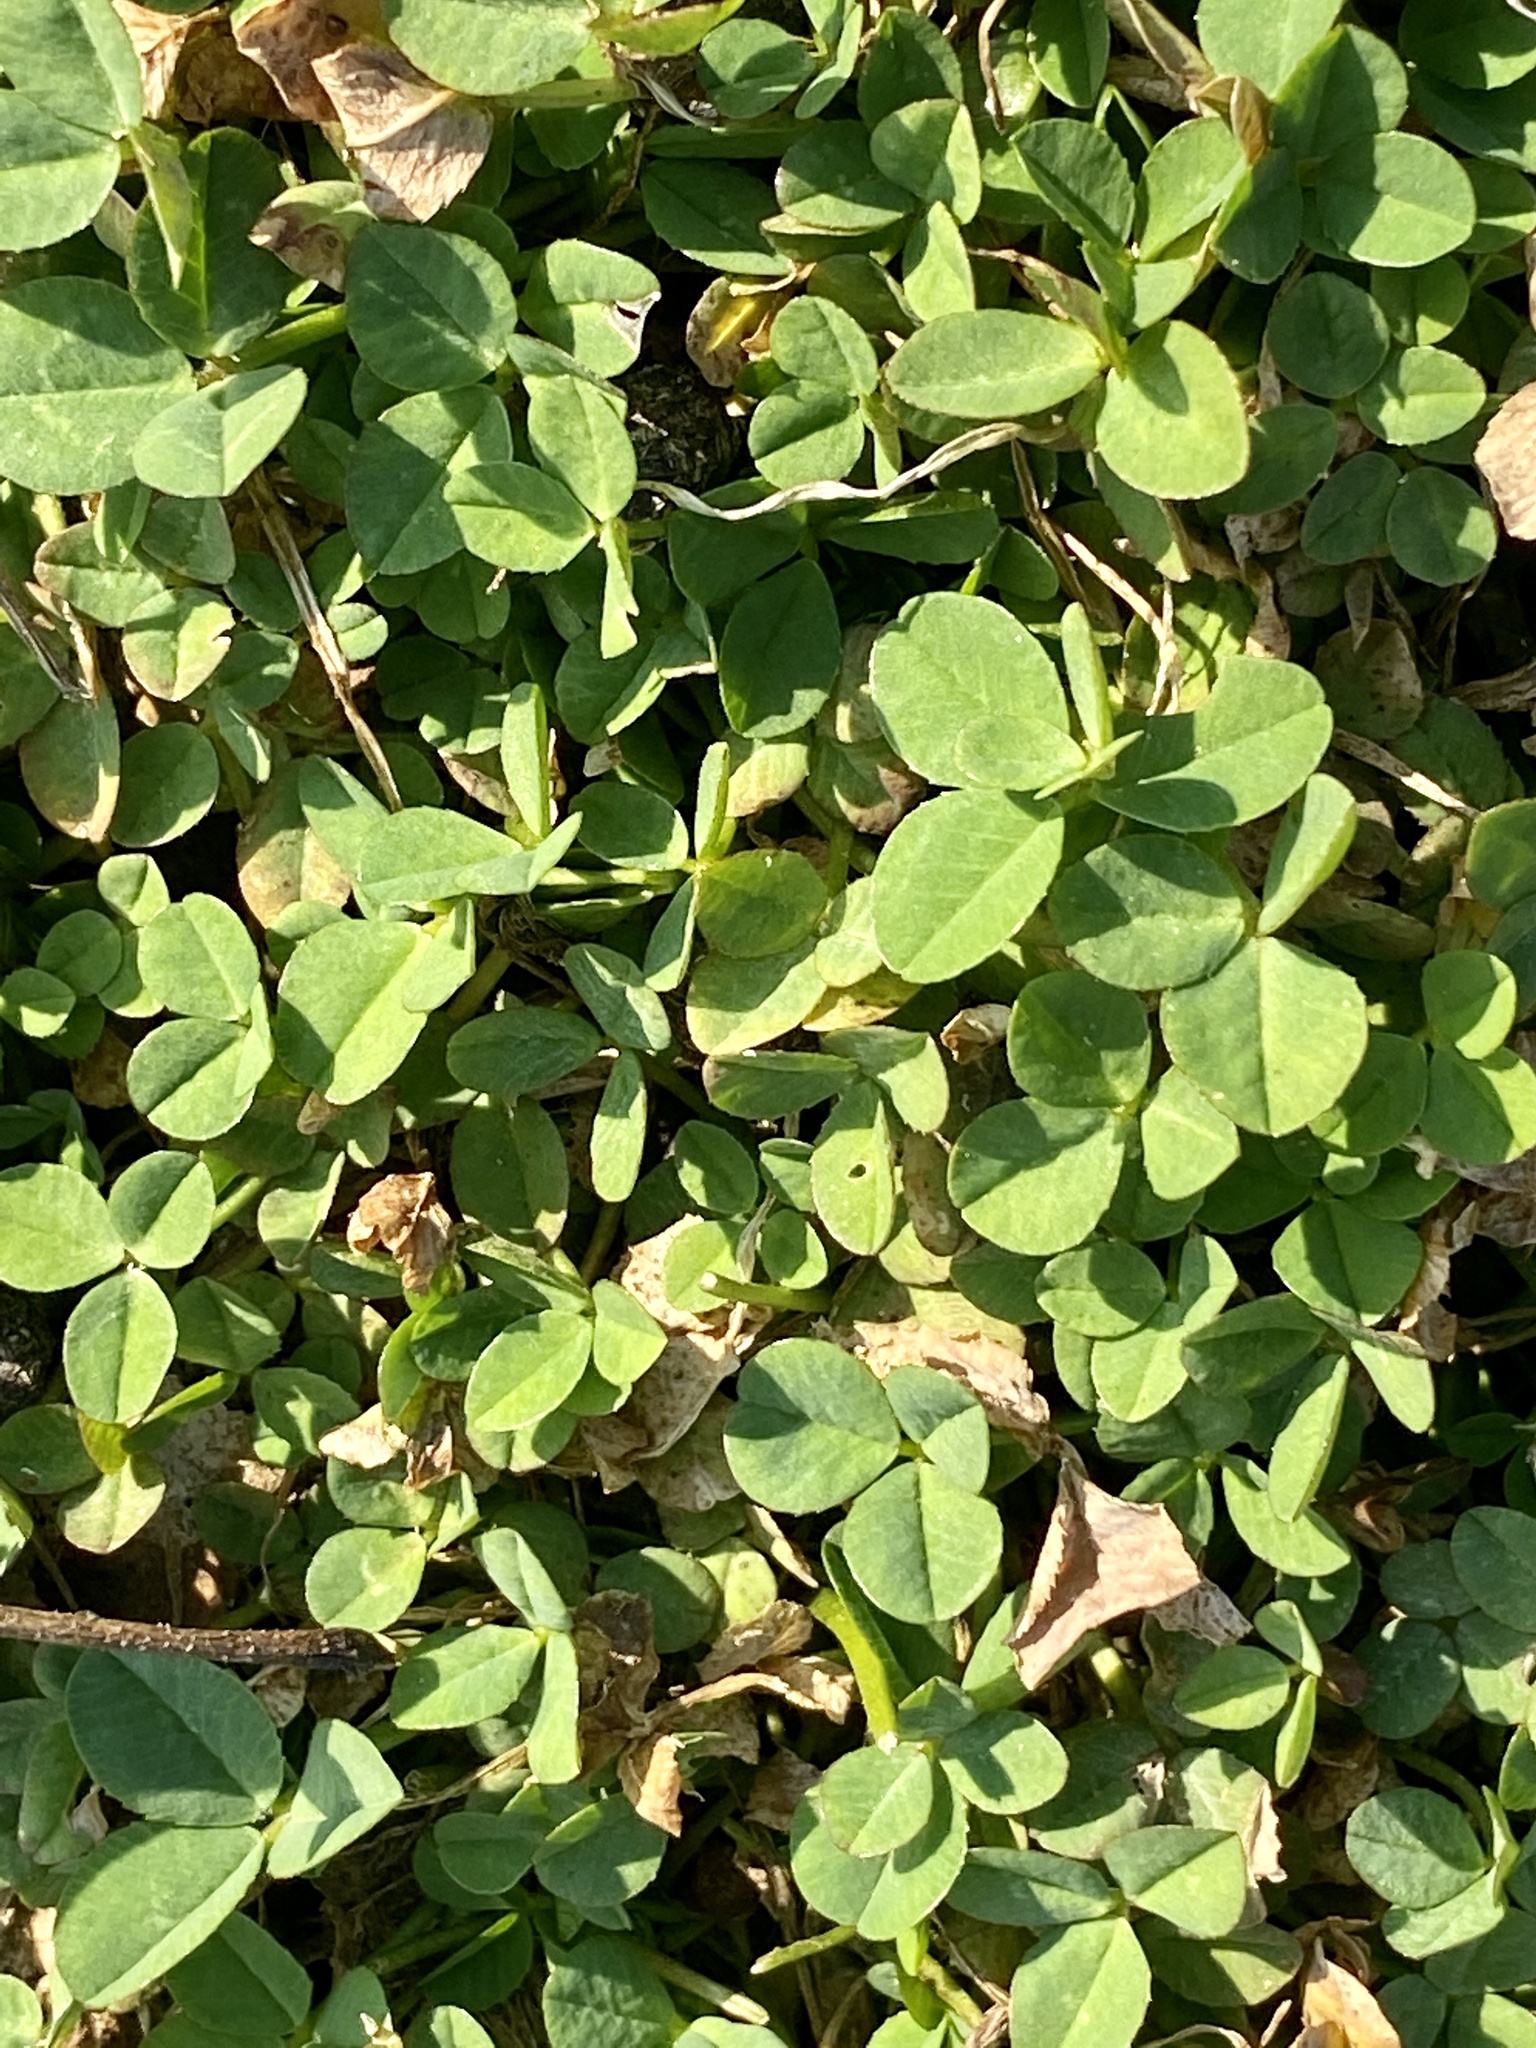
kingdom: Plantae
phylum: Tracheophyta
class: Magnoliopsida
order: Fabales
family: Fabaceae
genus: Trifolium
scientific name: Trifolium repens
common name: White clover
